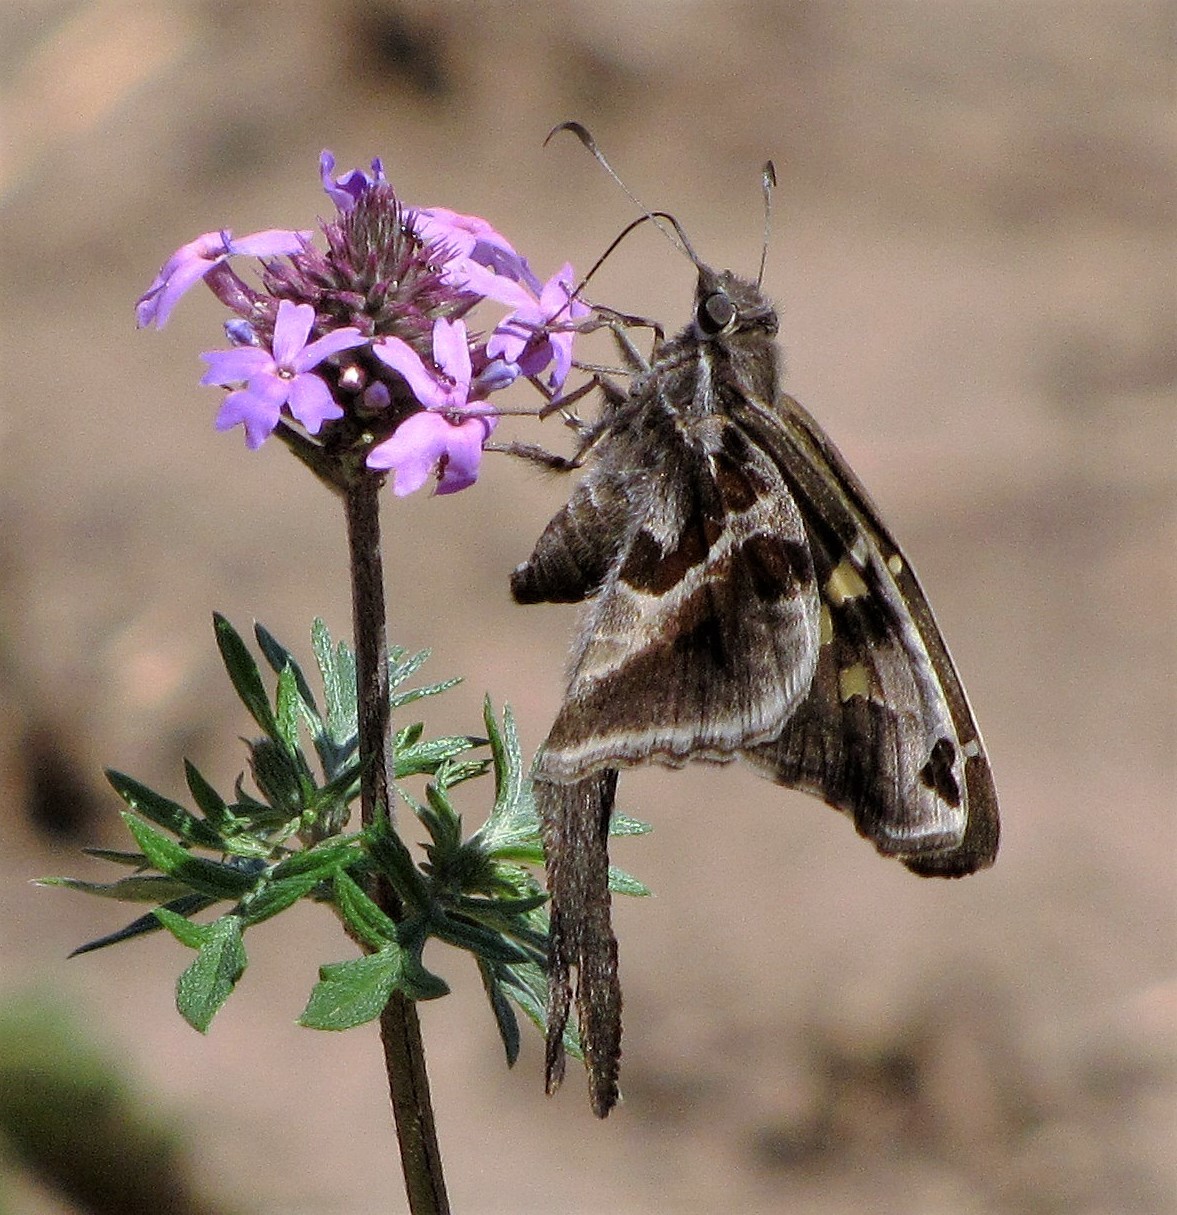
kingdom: Animalia
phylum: Arthropoda
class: Insecta
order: Lepidoptera
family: Hesperiidae
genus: Chioides
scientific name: Chioides catillus
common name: Silverbanded skipper
